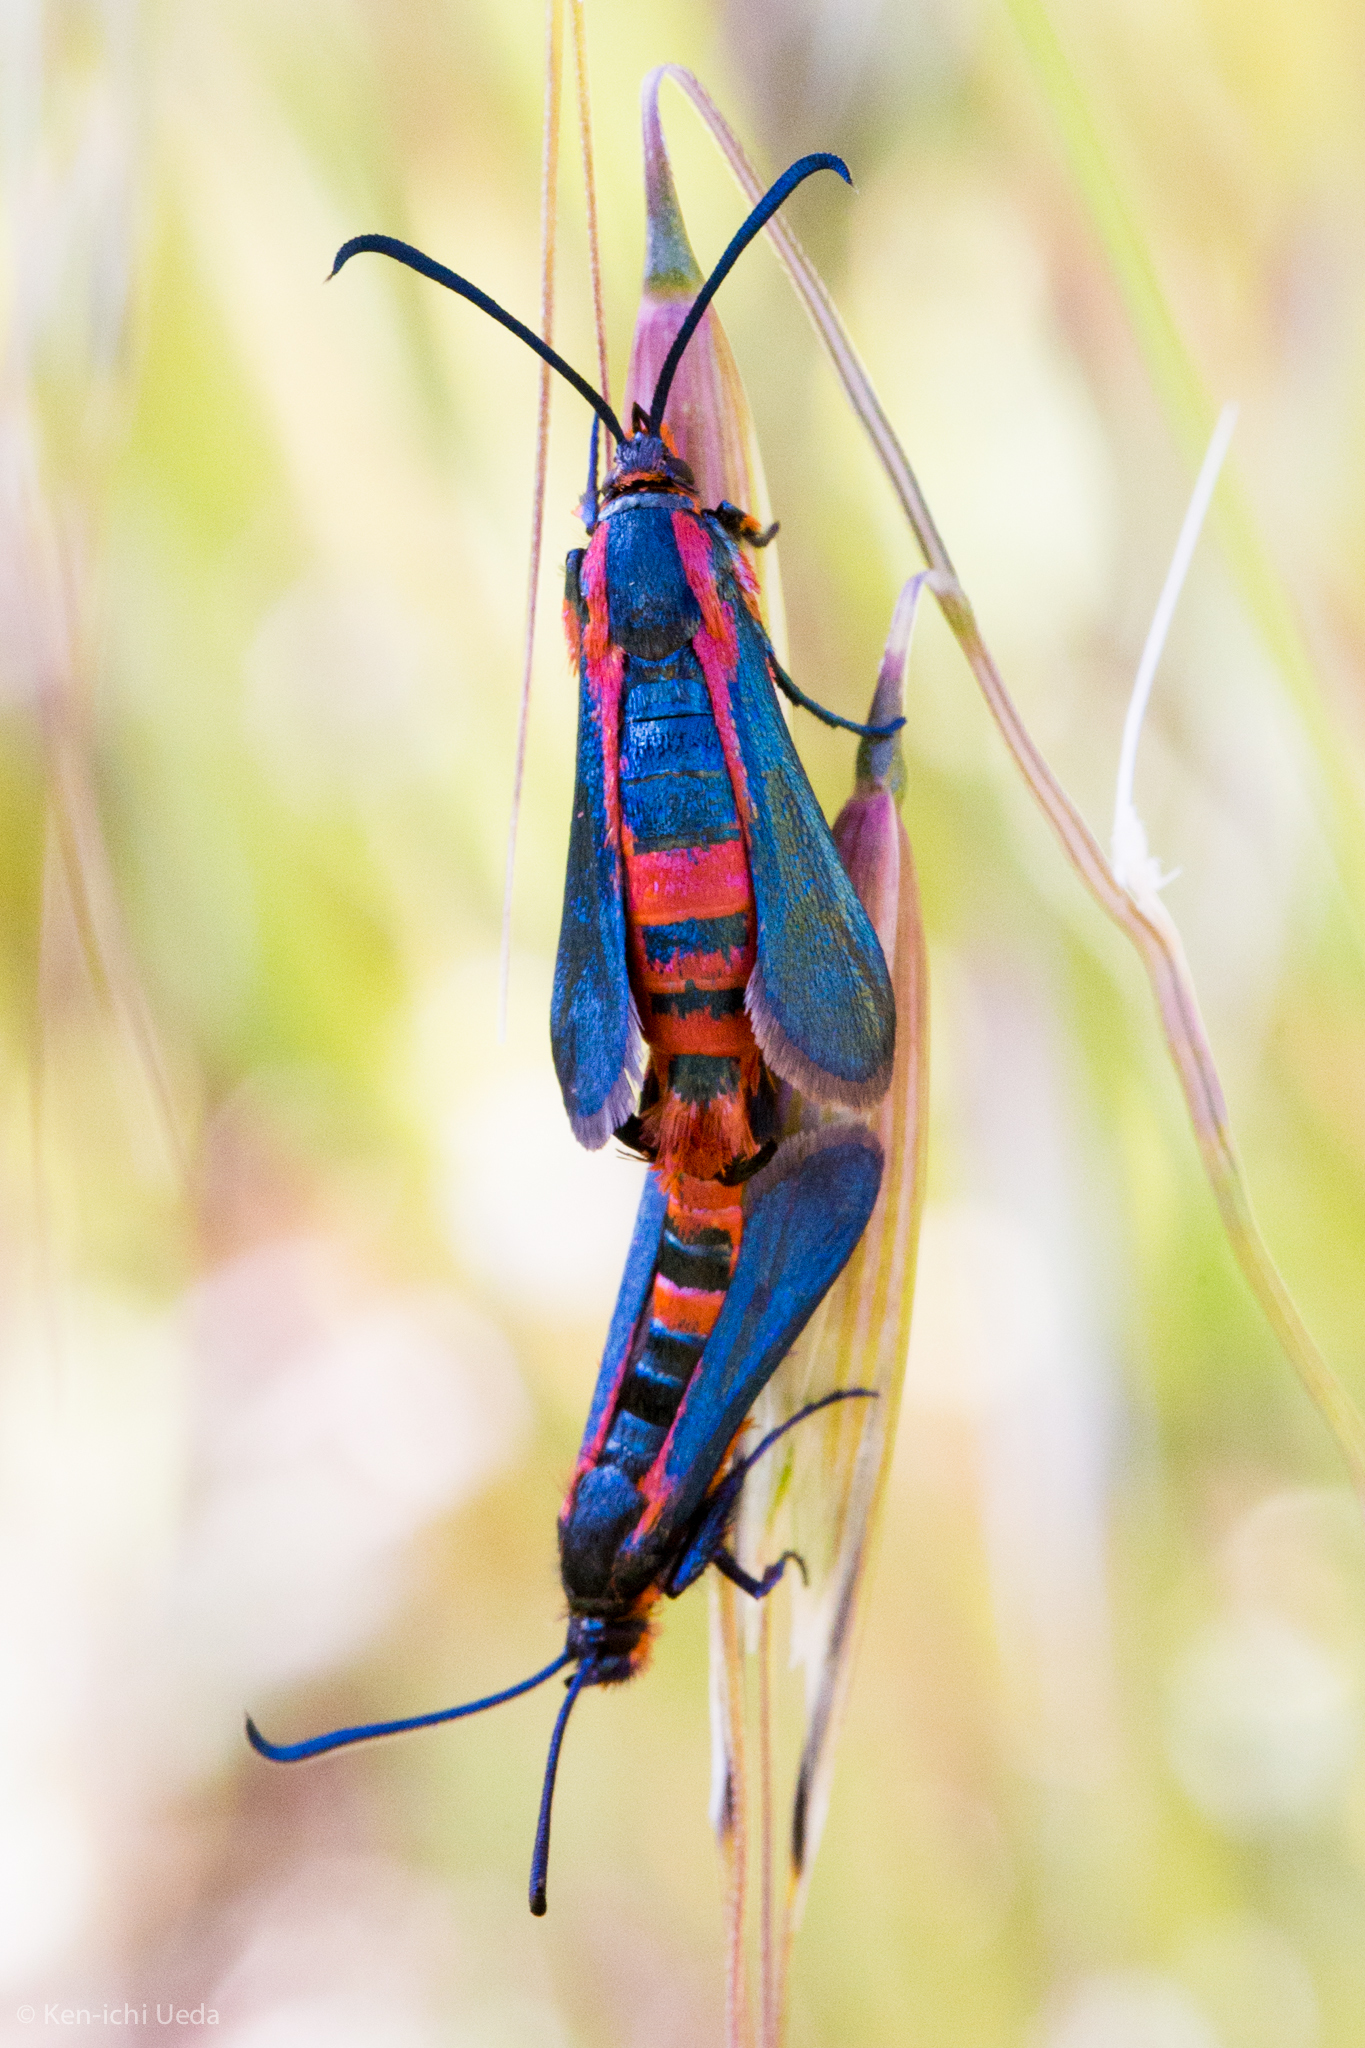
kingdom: Animalia
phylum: Arthropoda
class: Insecta
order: Lepidoptera
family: Sesiidae
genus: Synanthedon
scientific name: Synanthedon polygoni
